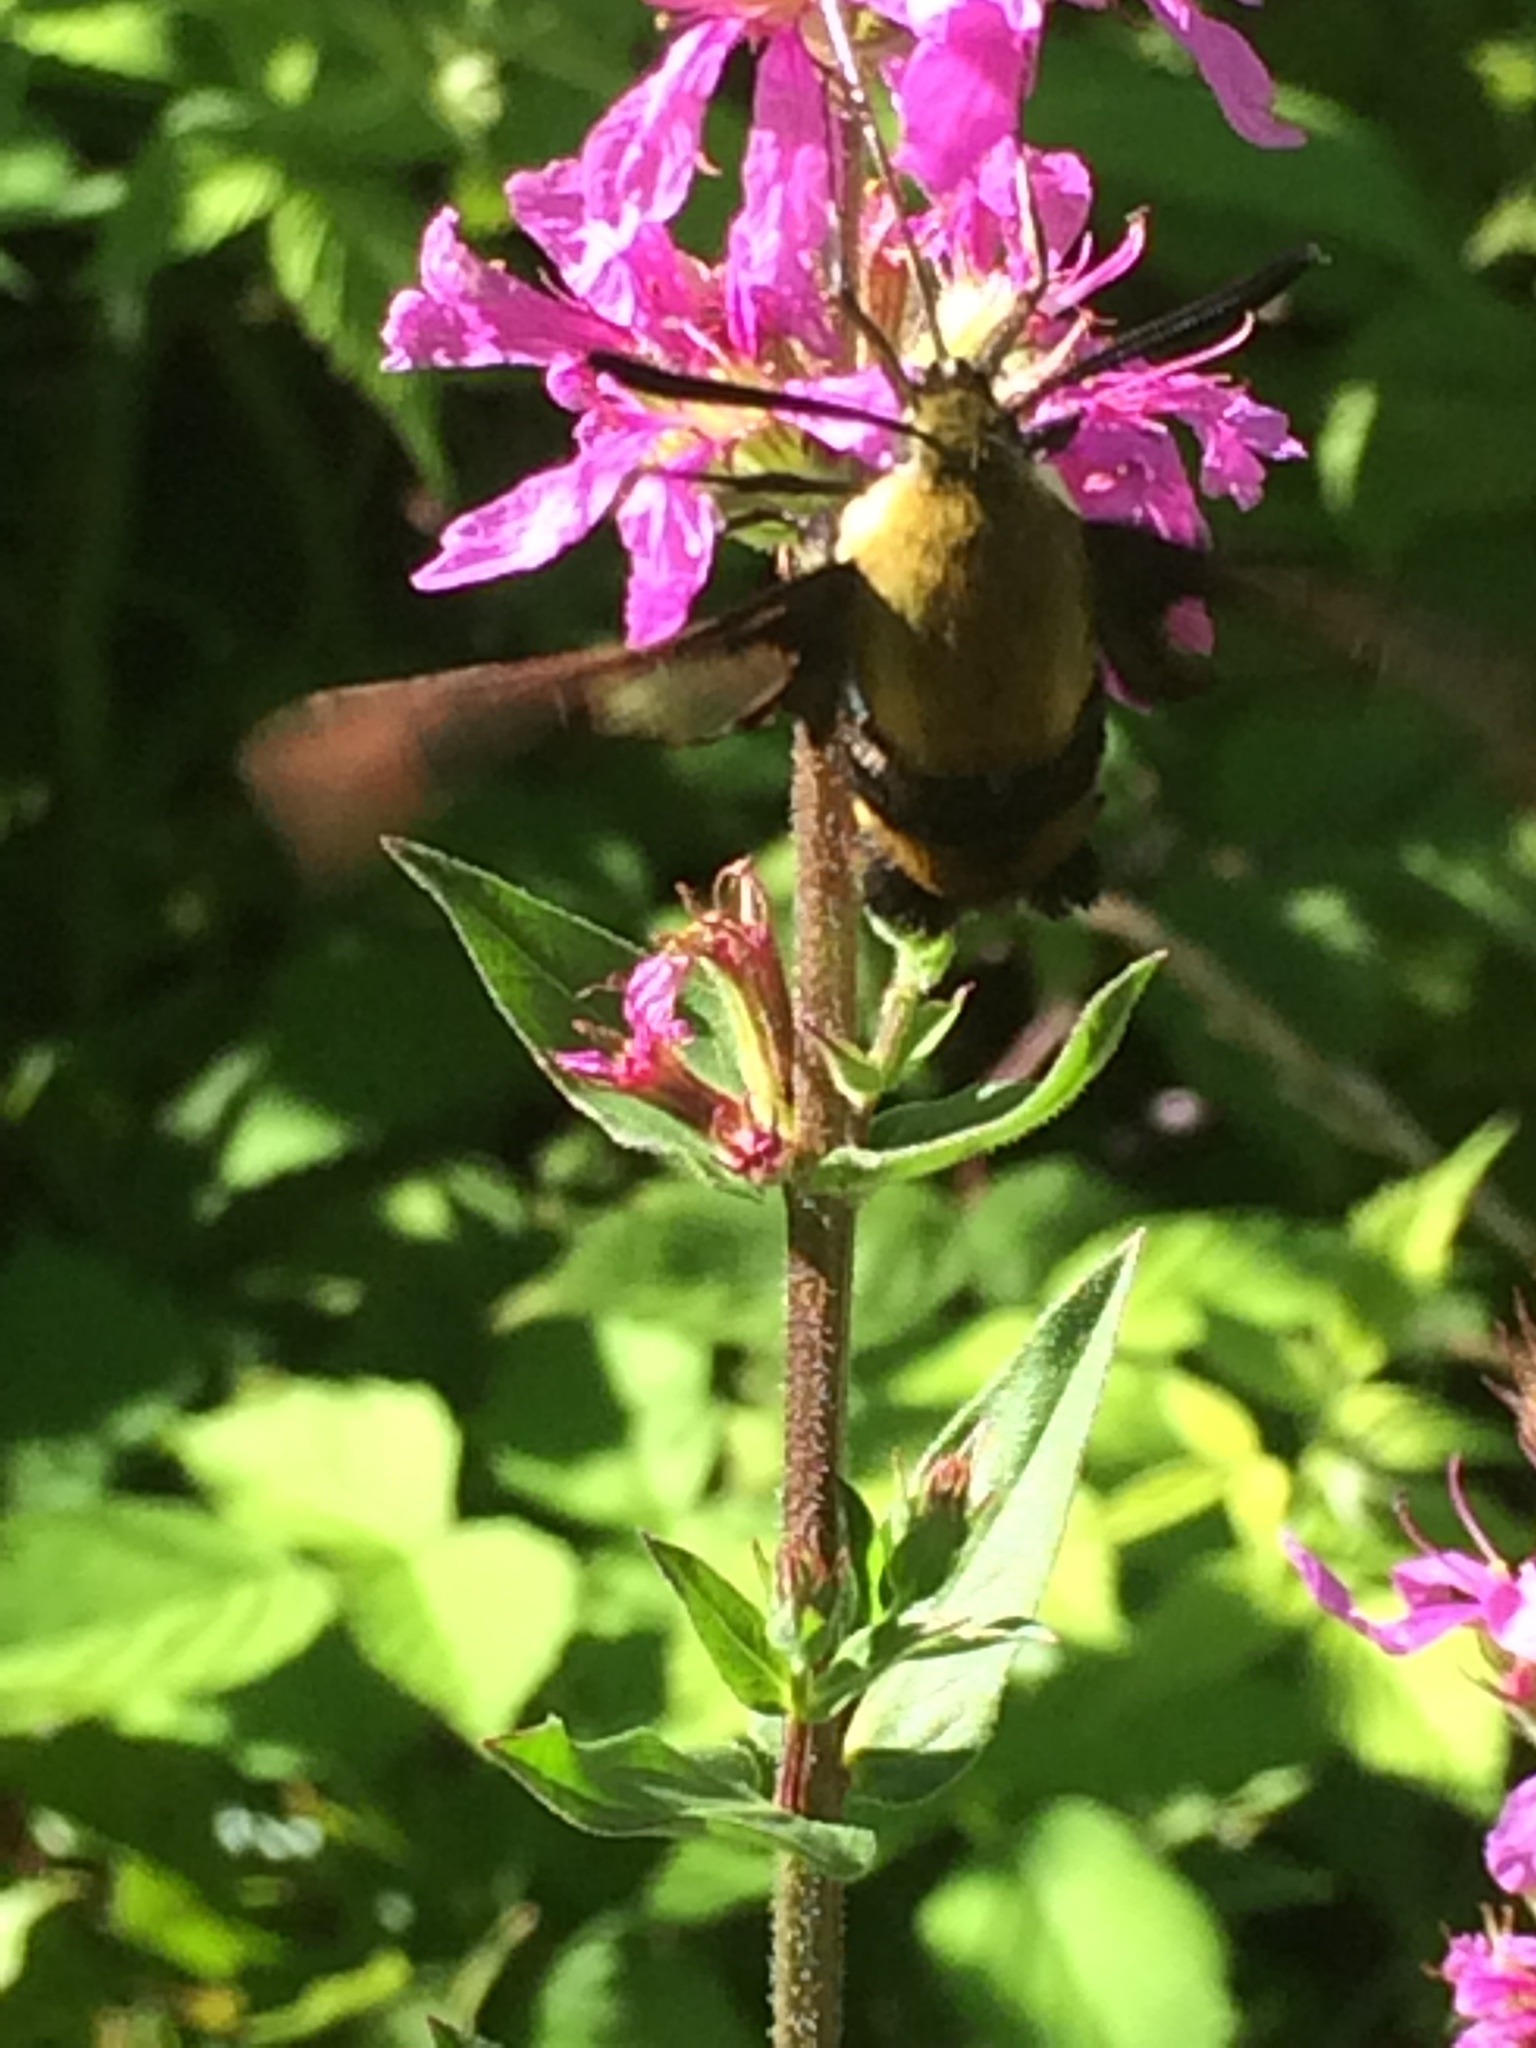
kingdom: Animalia
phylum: Arthropoda
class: Insecta
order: Lepidoptera
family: Sphingidae
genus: Hemaris
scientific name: Hemaris diffinis
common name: Bumblebee moth
